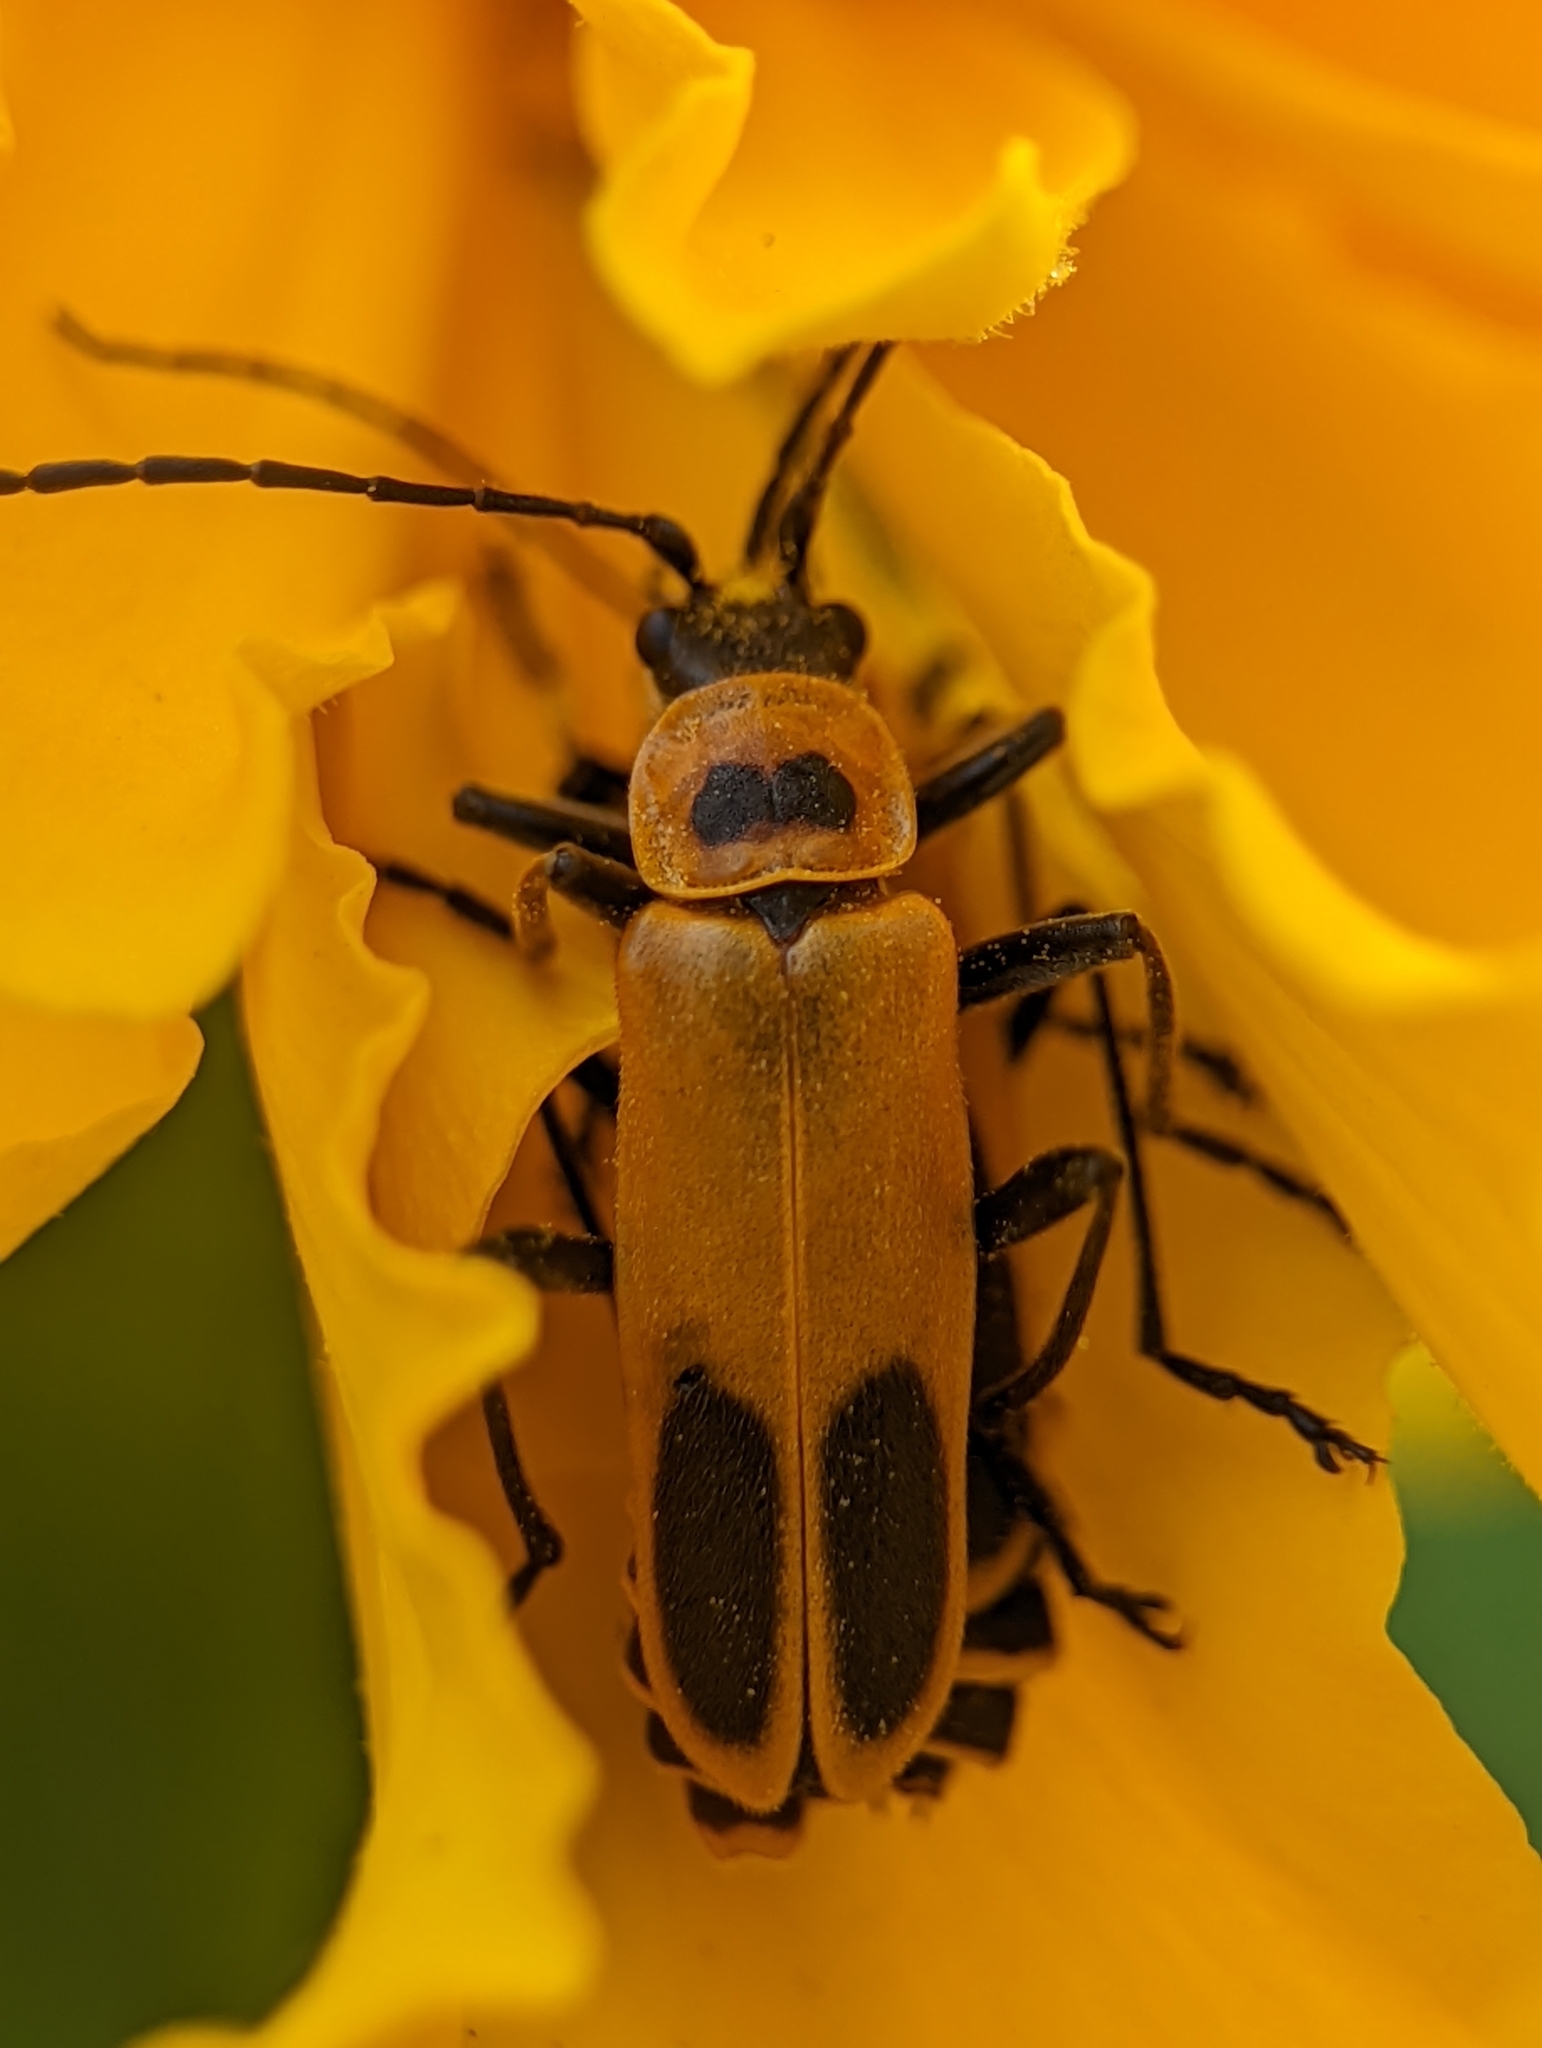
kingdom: Animalia
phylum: Arthropoda
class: Insecta
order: Coleoptera
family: Cantharidae
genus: Chauliognathus
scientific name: Chauliognathus pensylvanicus
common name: Goldenrod soldier beetle
